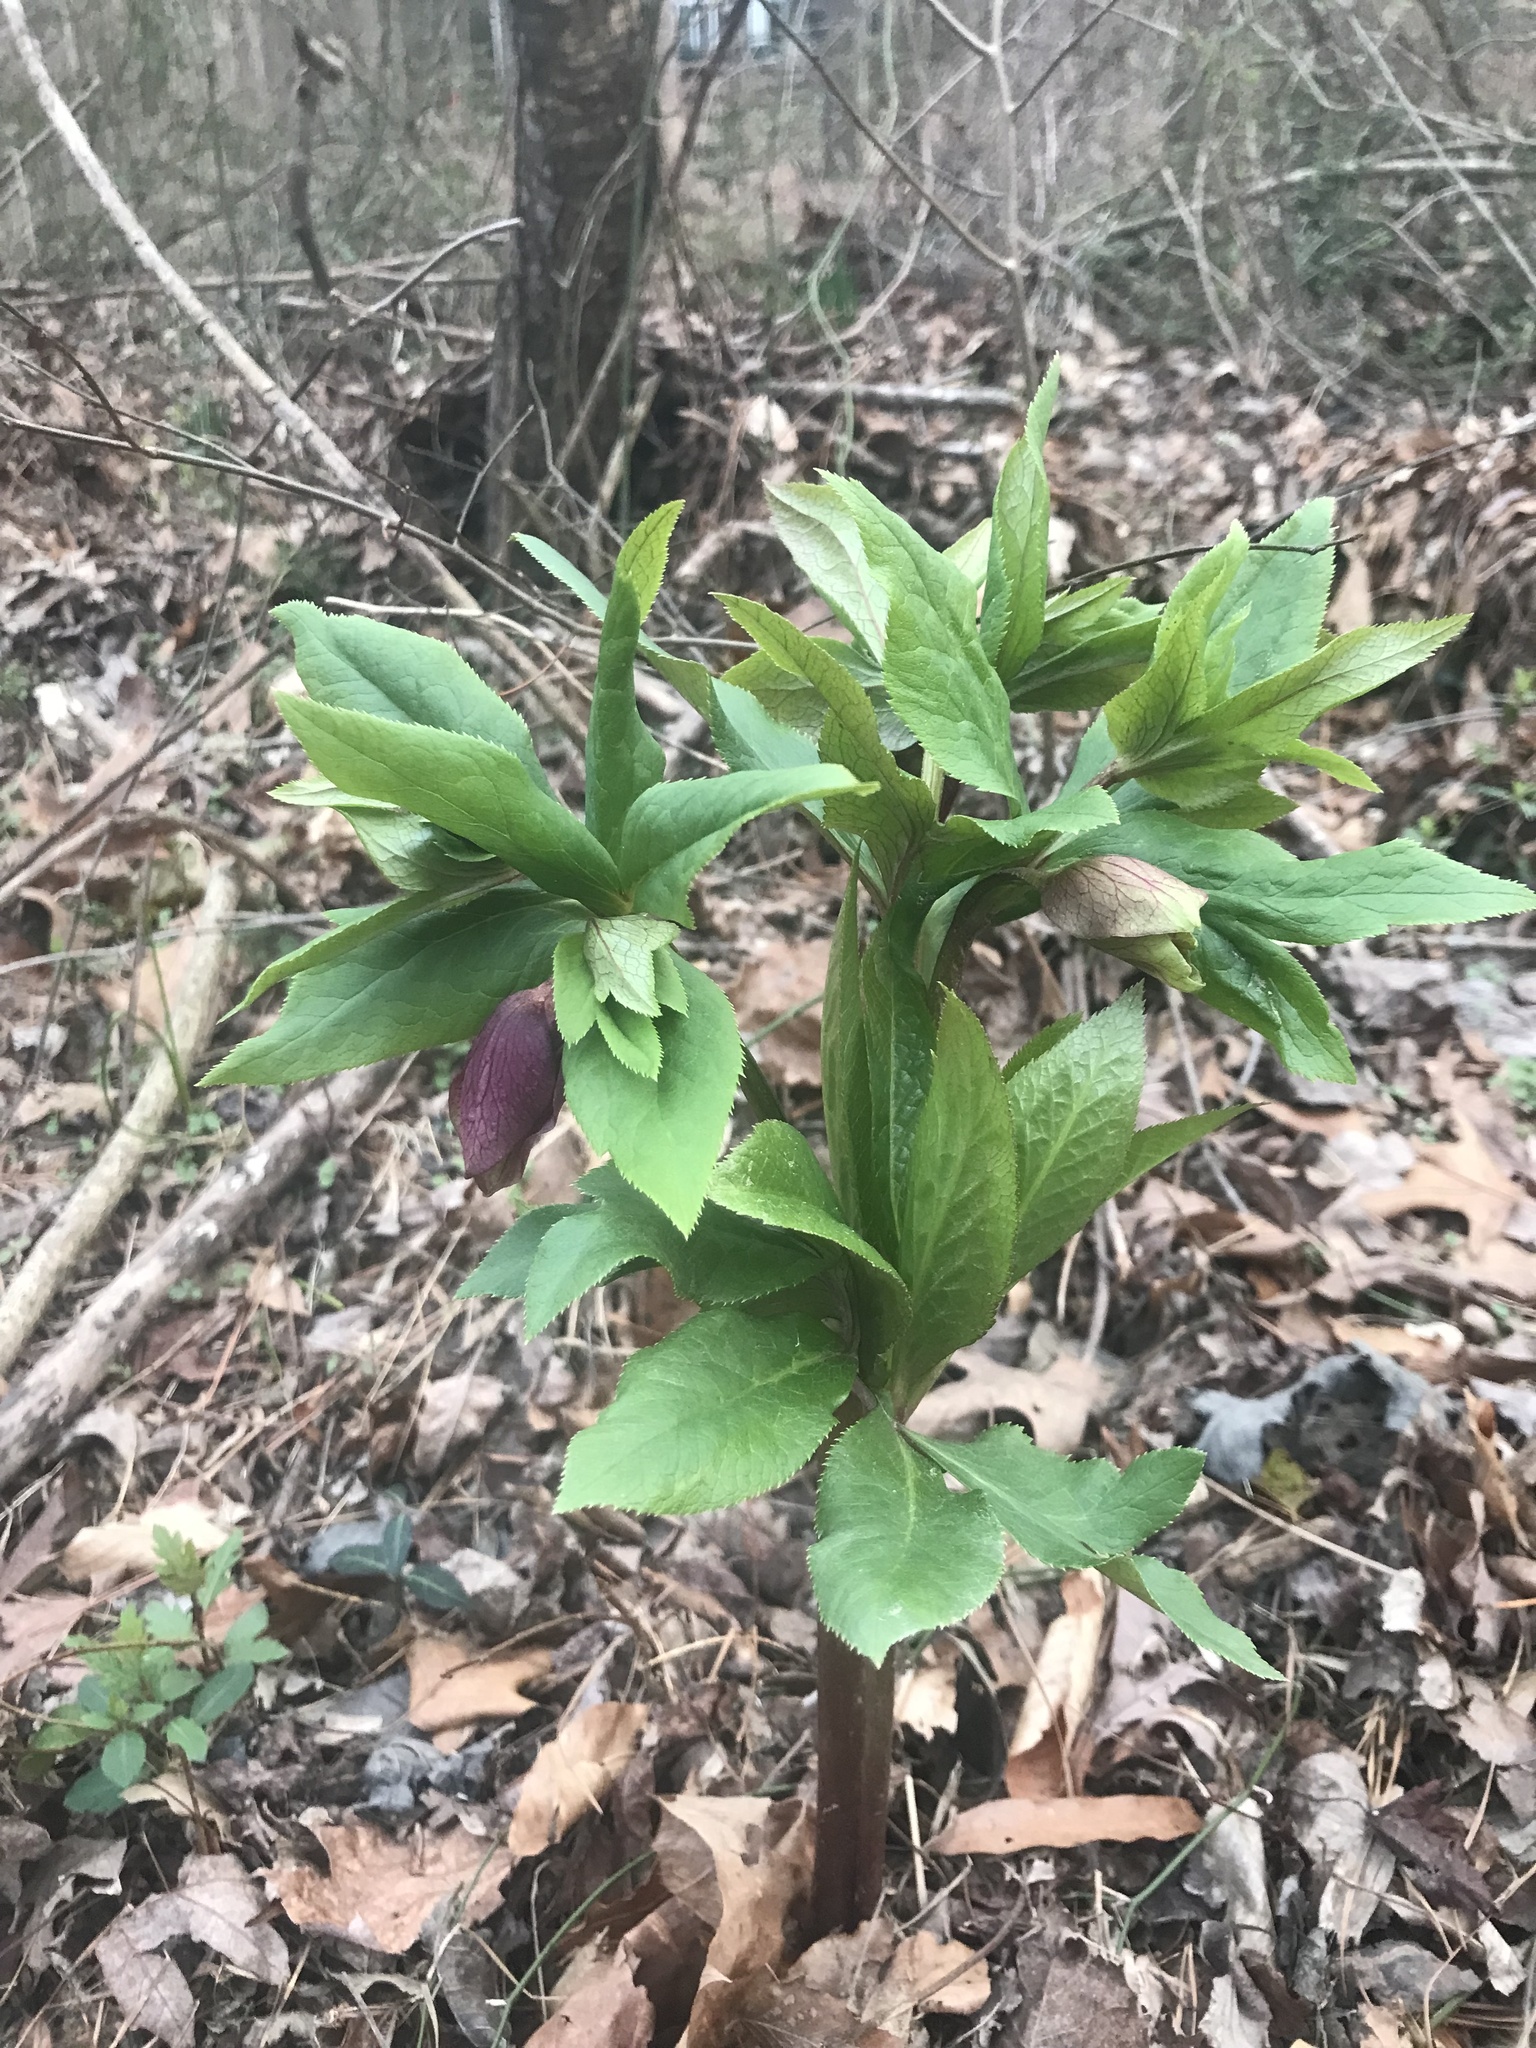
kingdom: Plantae
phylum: Tracheophyta
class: Magnoliopsida
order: Ranunculales
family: Ranunculaceae
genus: Helleborus
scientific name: Helleborus orientalis
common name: Lenten-rose
